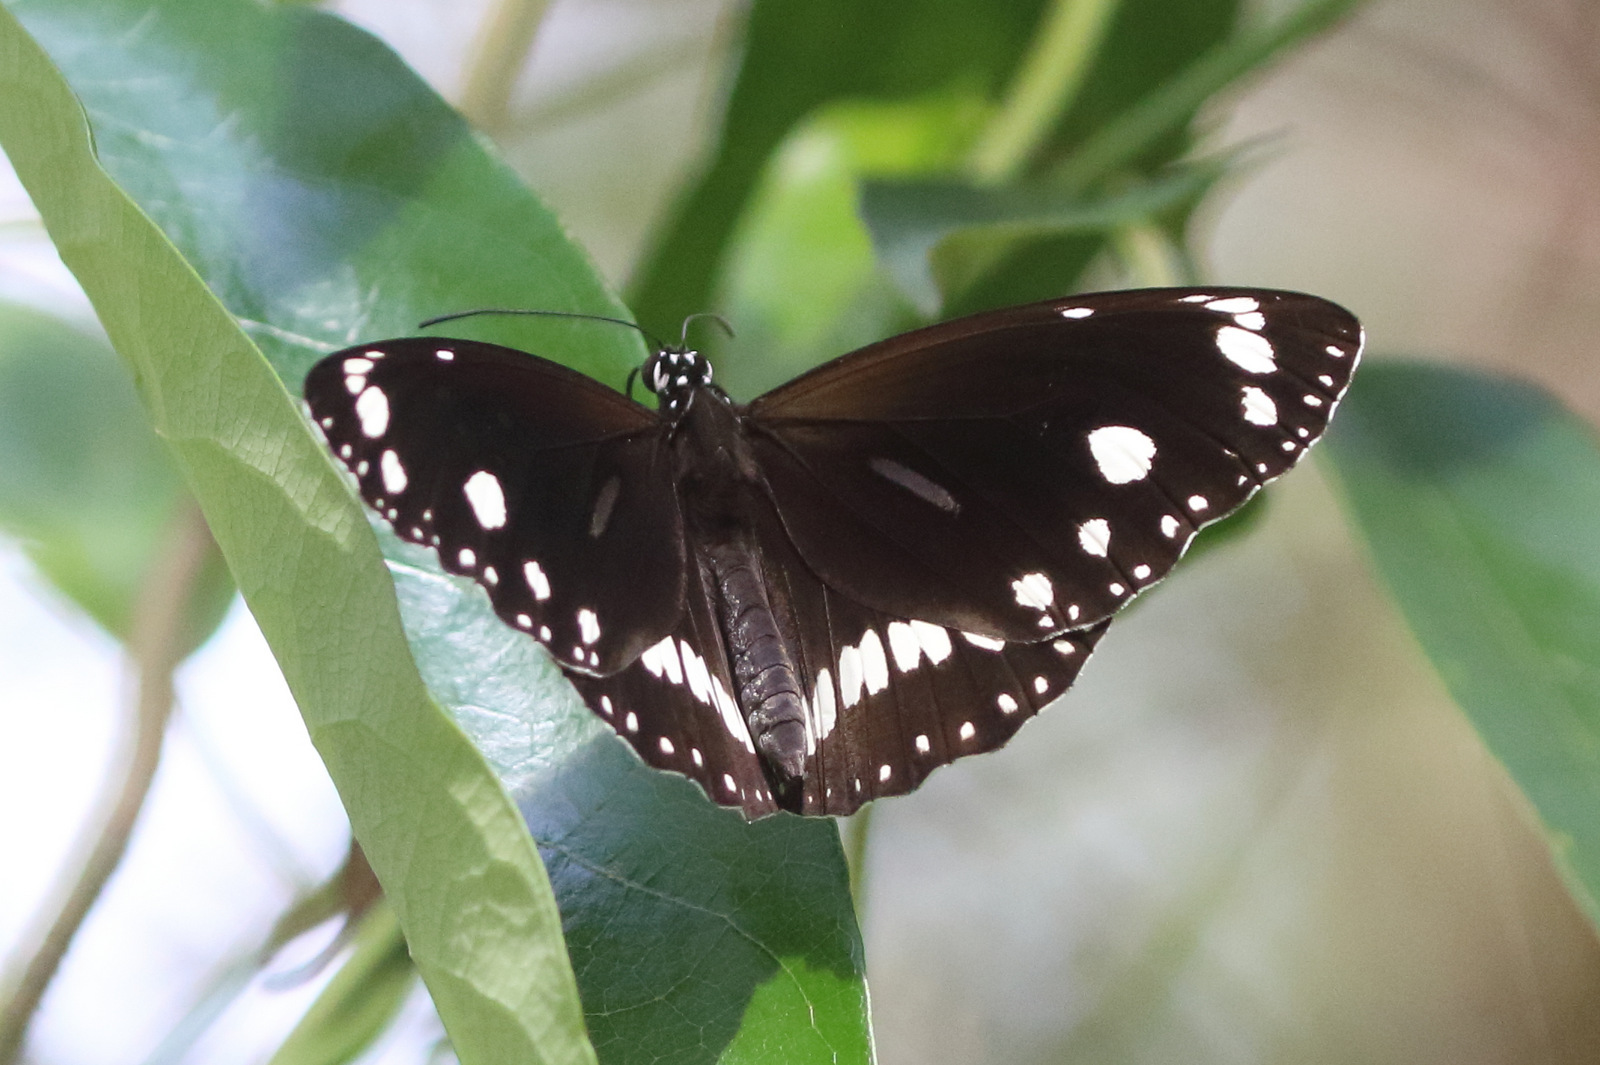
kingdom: Animalia
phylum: Arthropoda
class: Insecta
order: Lepidoptera
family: Nymphalidae
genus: Euploea
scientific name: Euploea core
